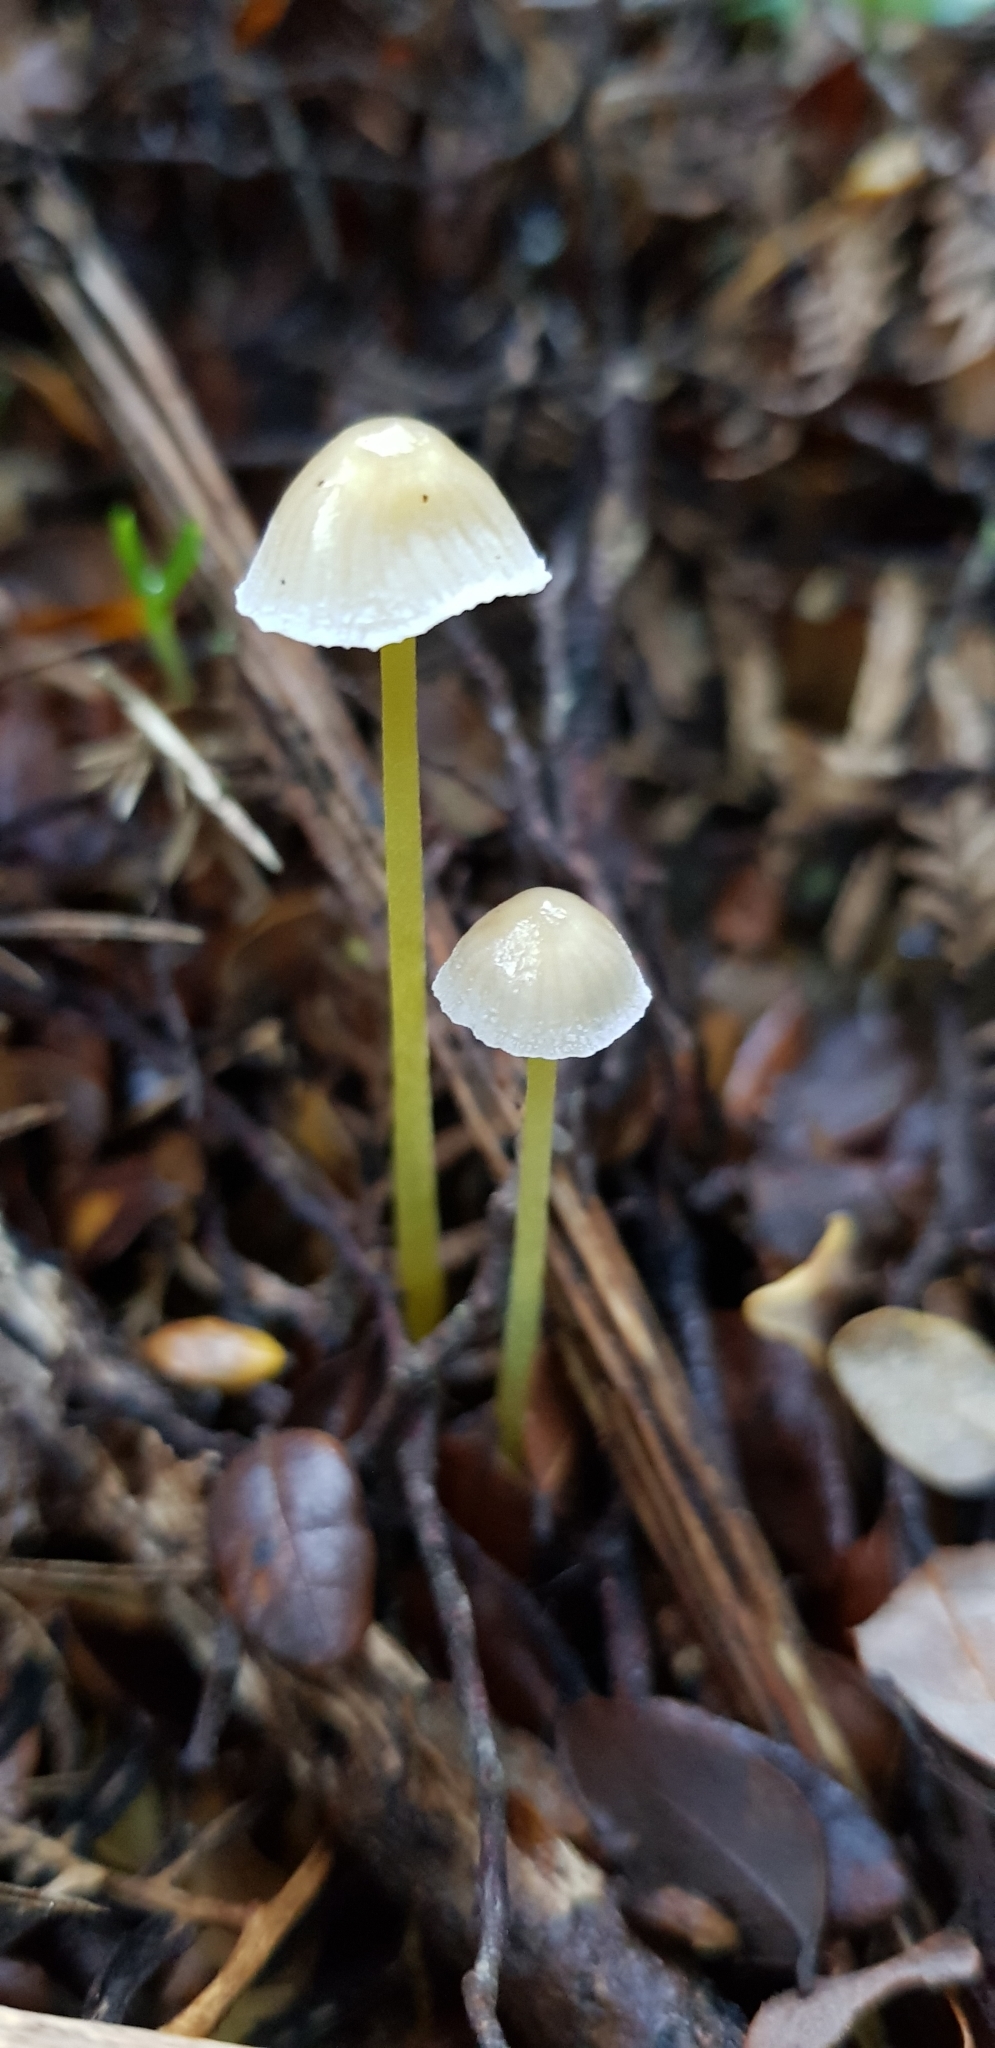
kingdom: Fungi
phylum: Basidiomycota
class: Agaricomycetes
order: Agaricales
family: Mycenaceae
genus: Mycena
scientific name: Mycena subviscosa
